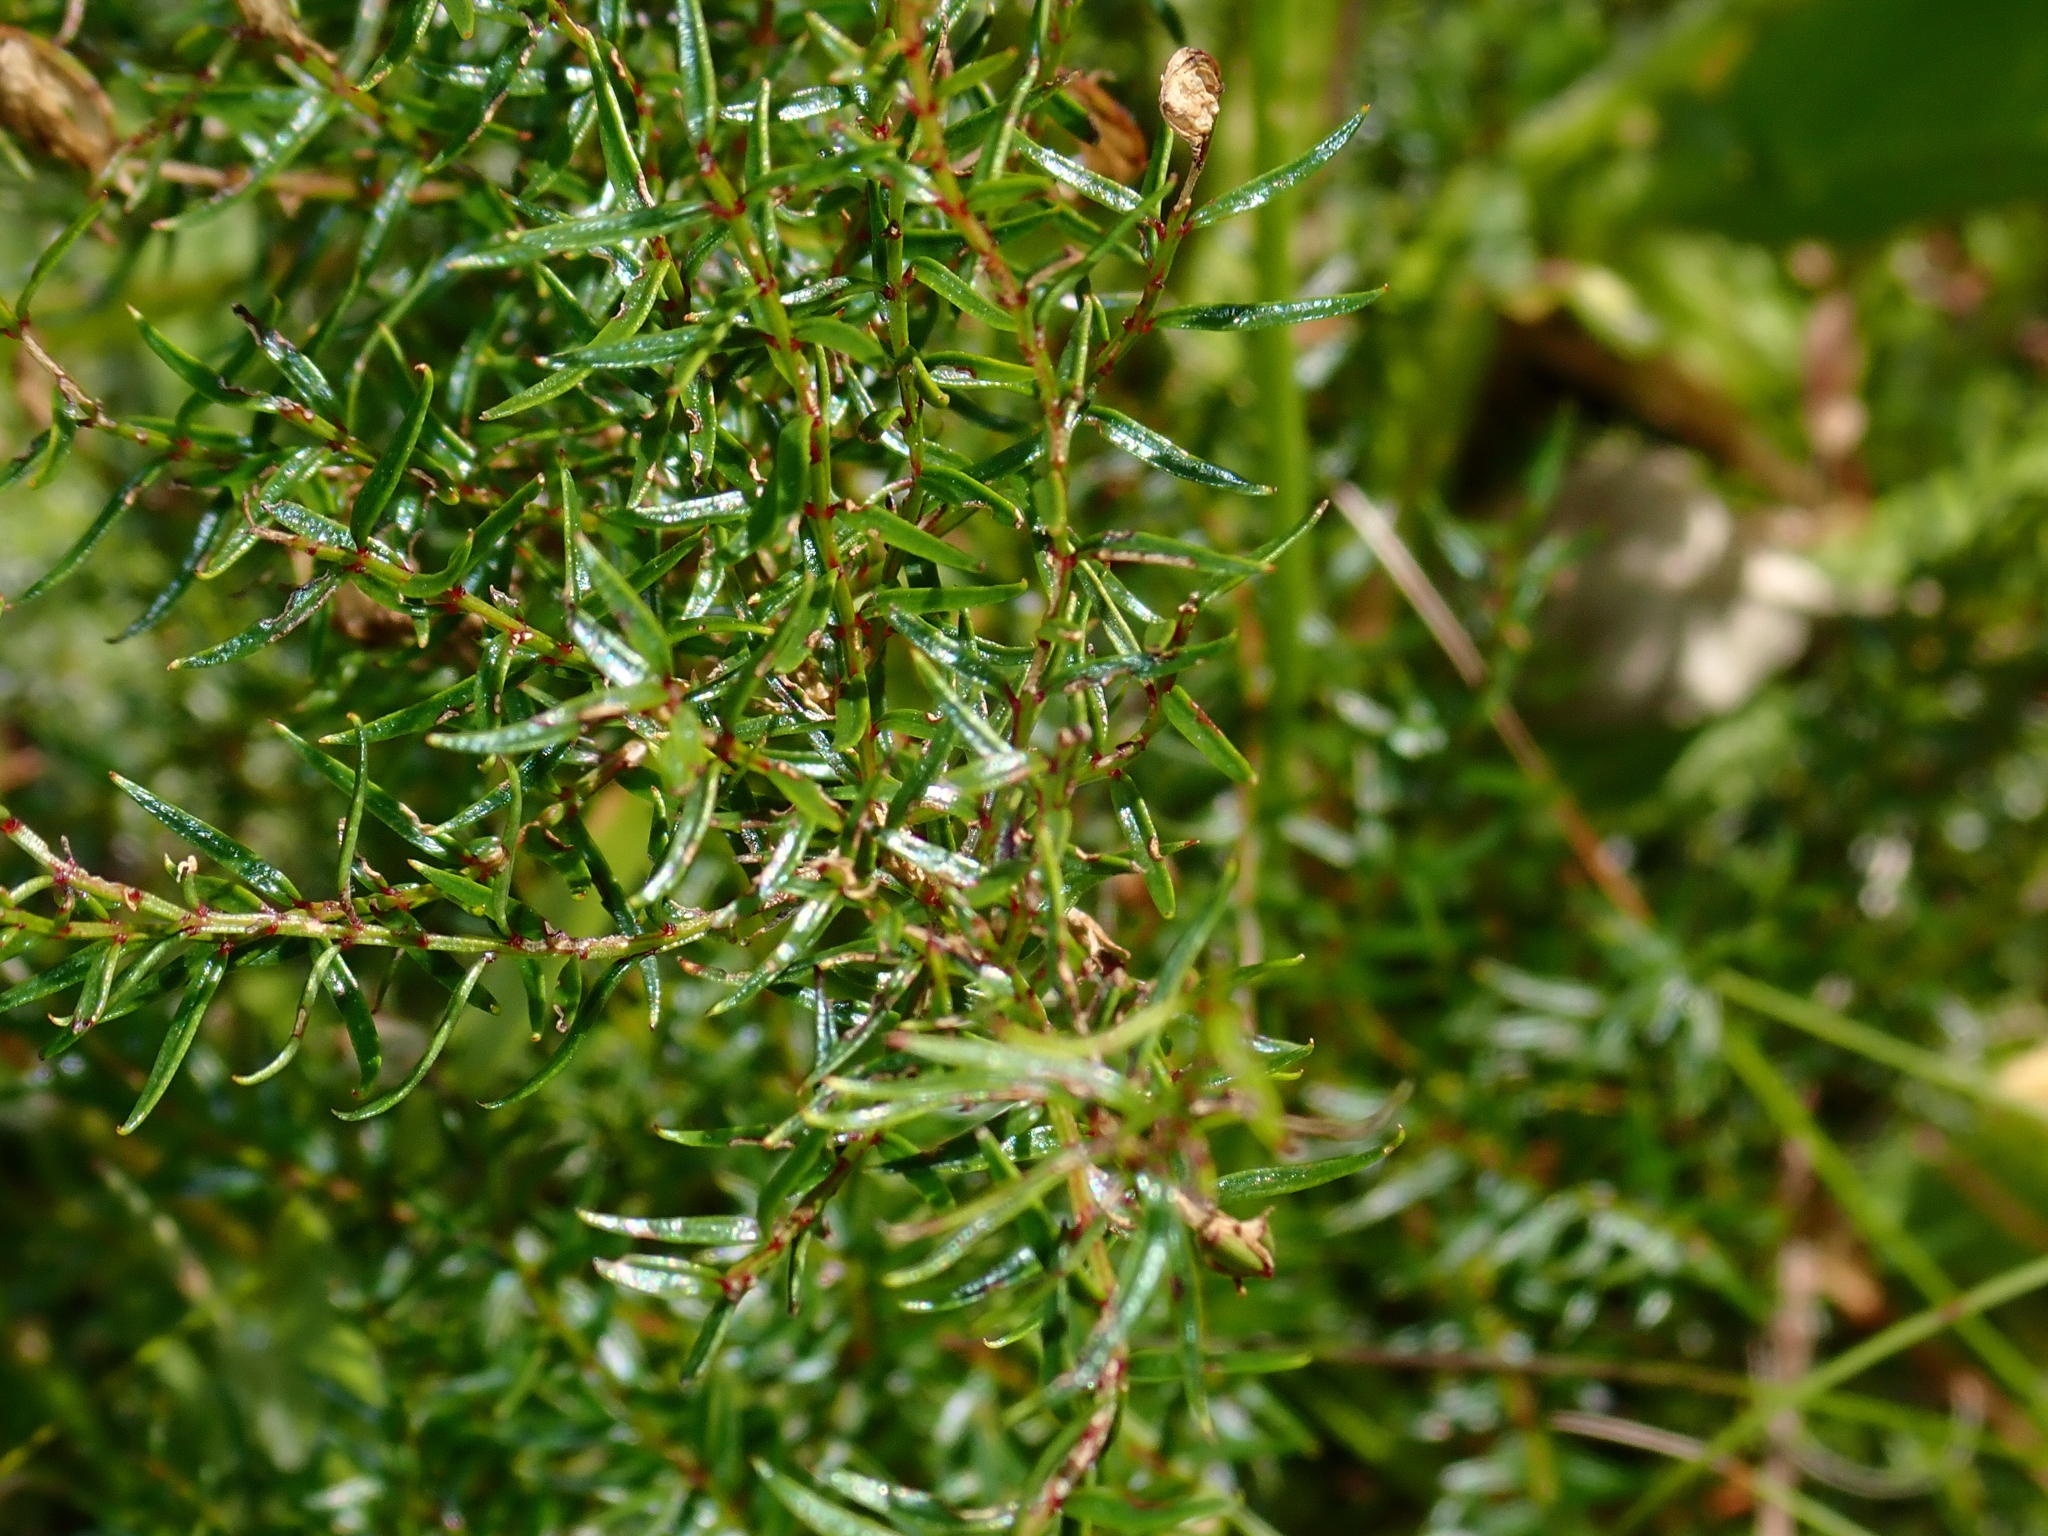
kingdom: Plantae
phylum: Tracheophyta
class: Magnoliopsida
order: Cucurbitales
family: Coriariaceae
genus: Coriaria
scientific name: Coriaria angustissima
